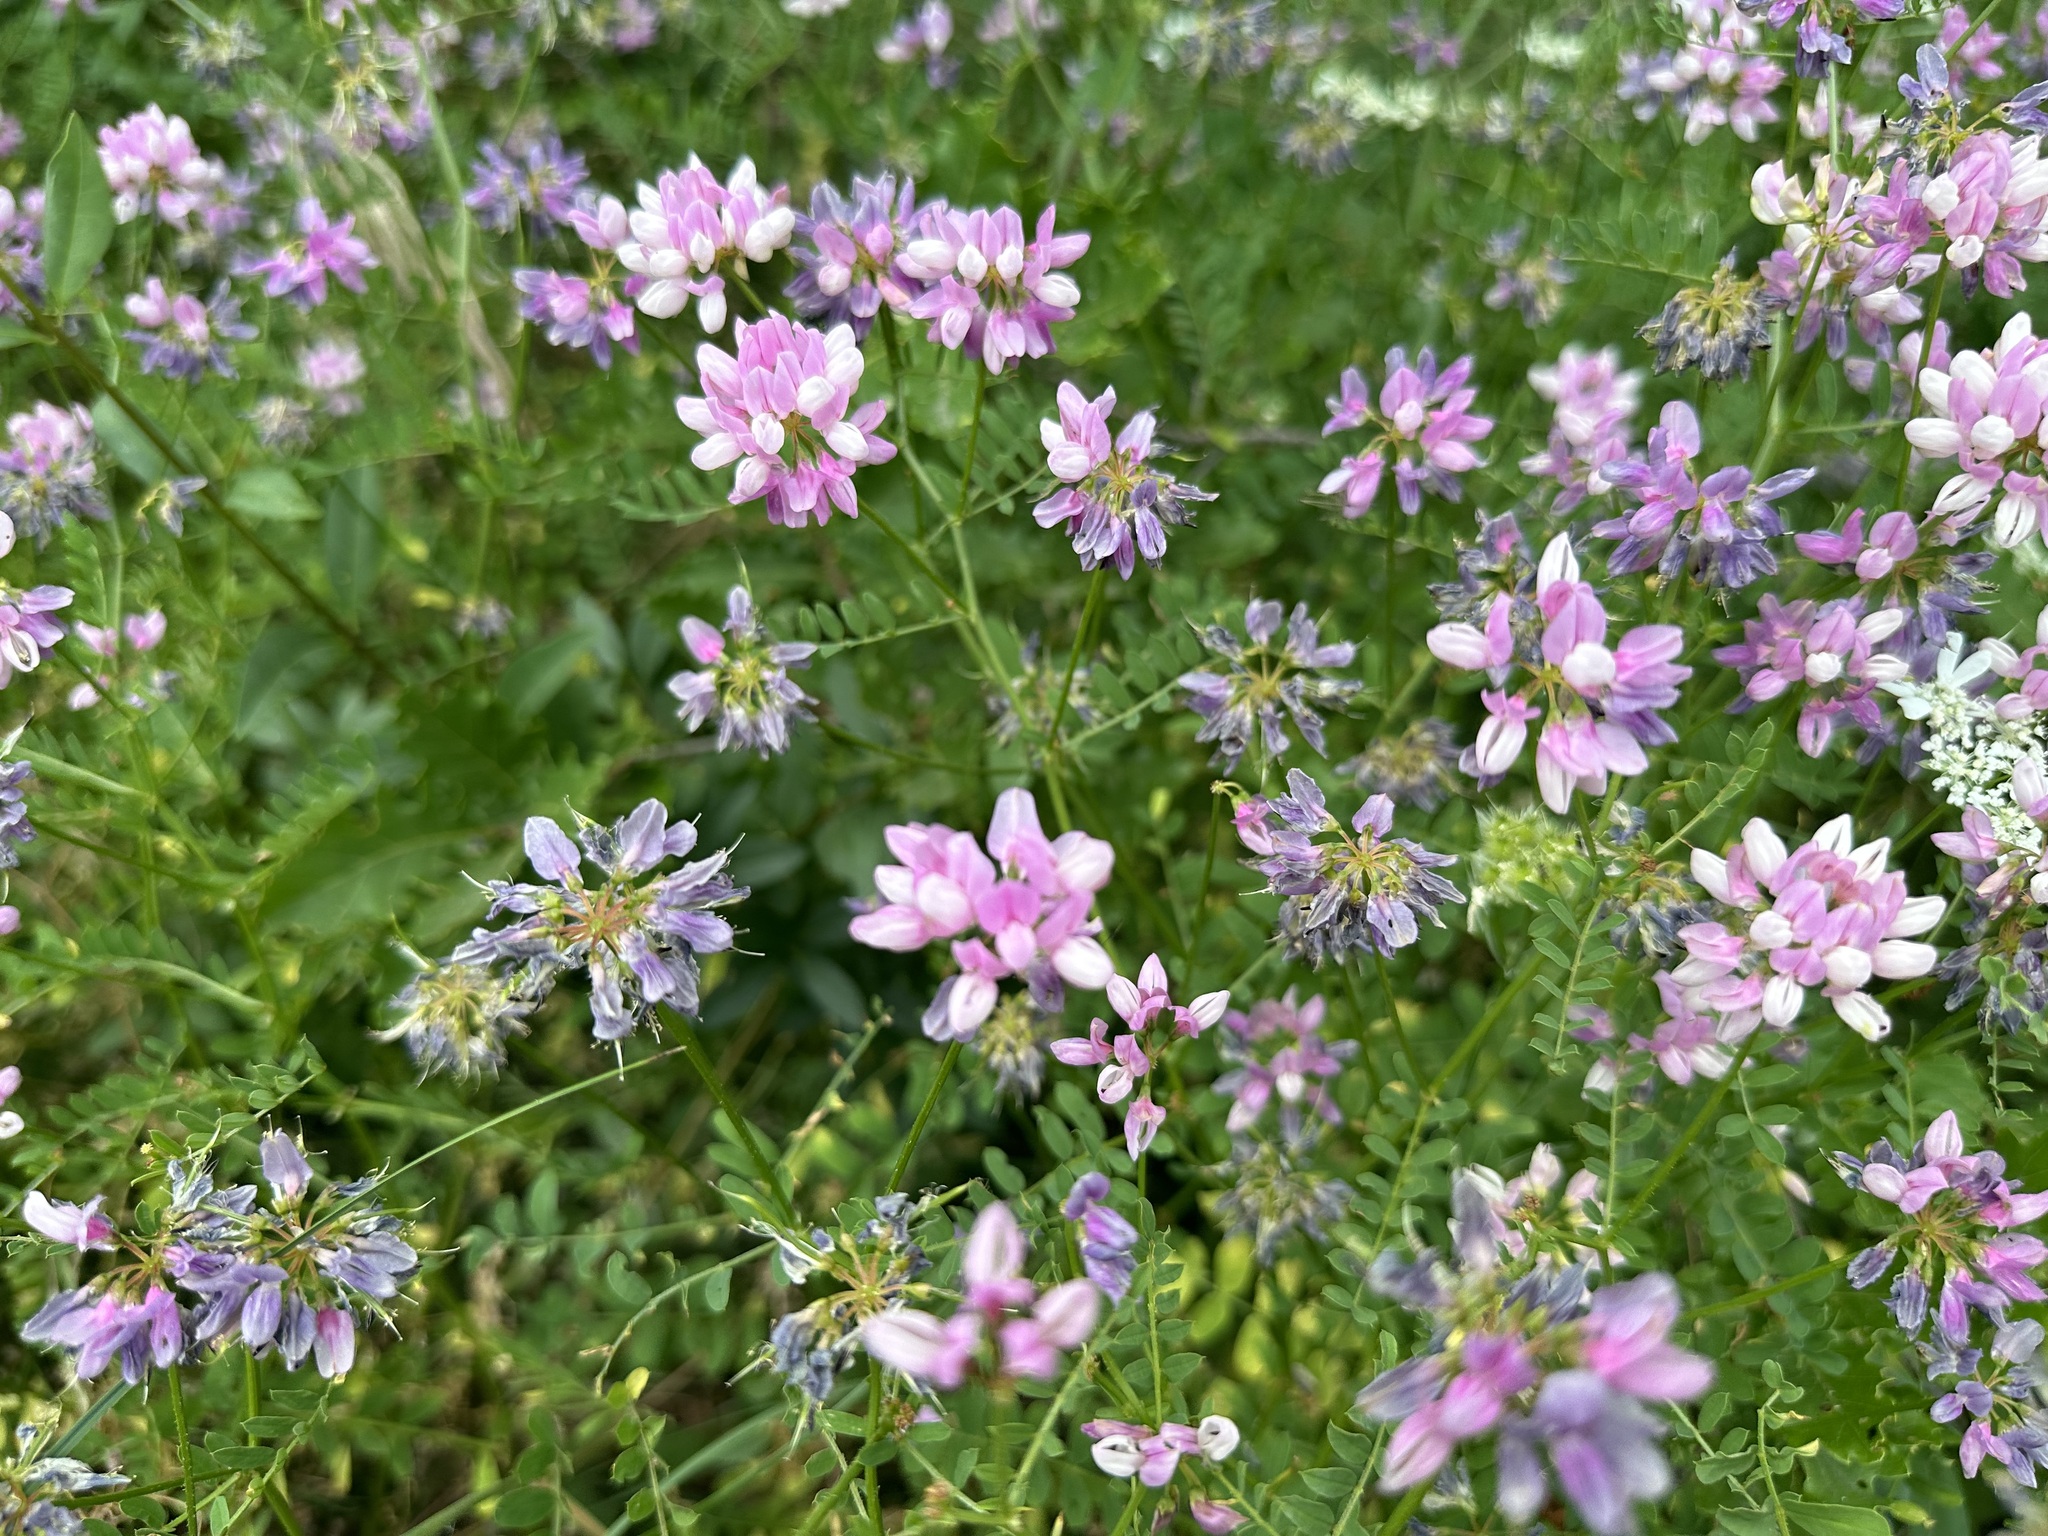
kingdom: Plantae
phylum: Tracheophyta
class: Magnoliopsida
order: Fabales
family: Fabaceae
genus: Coronilla
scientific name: Coronilla varia
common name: Crownvetch
